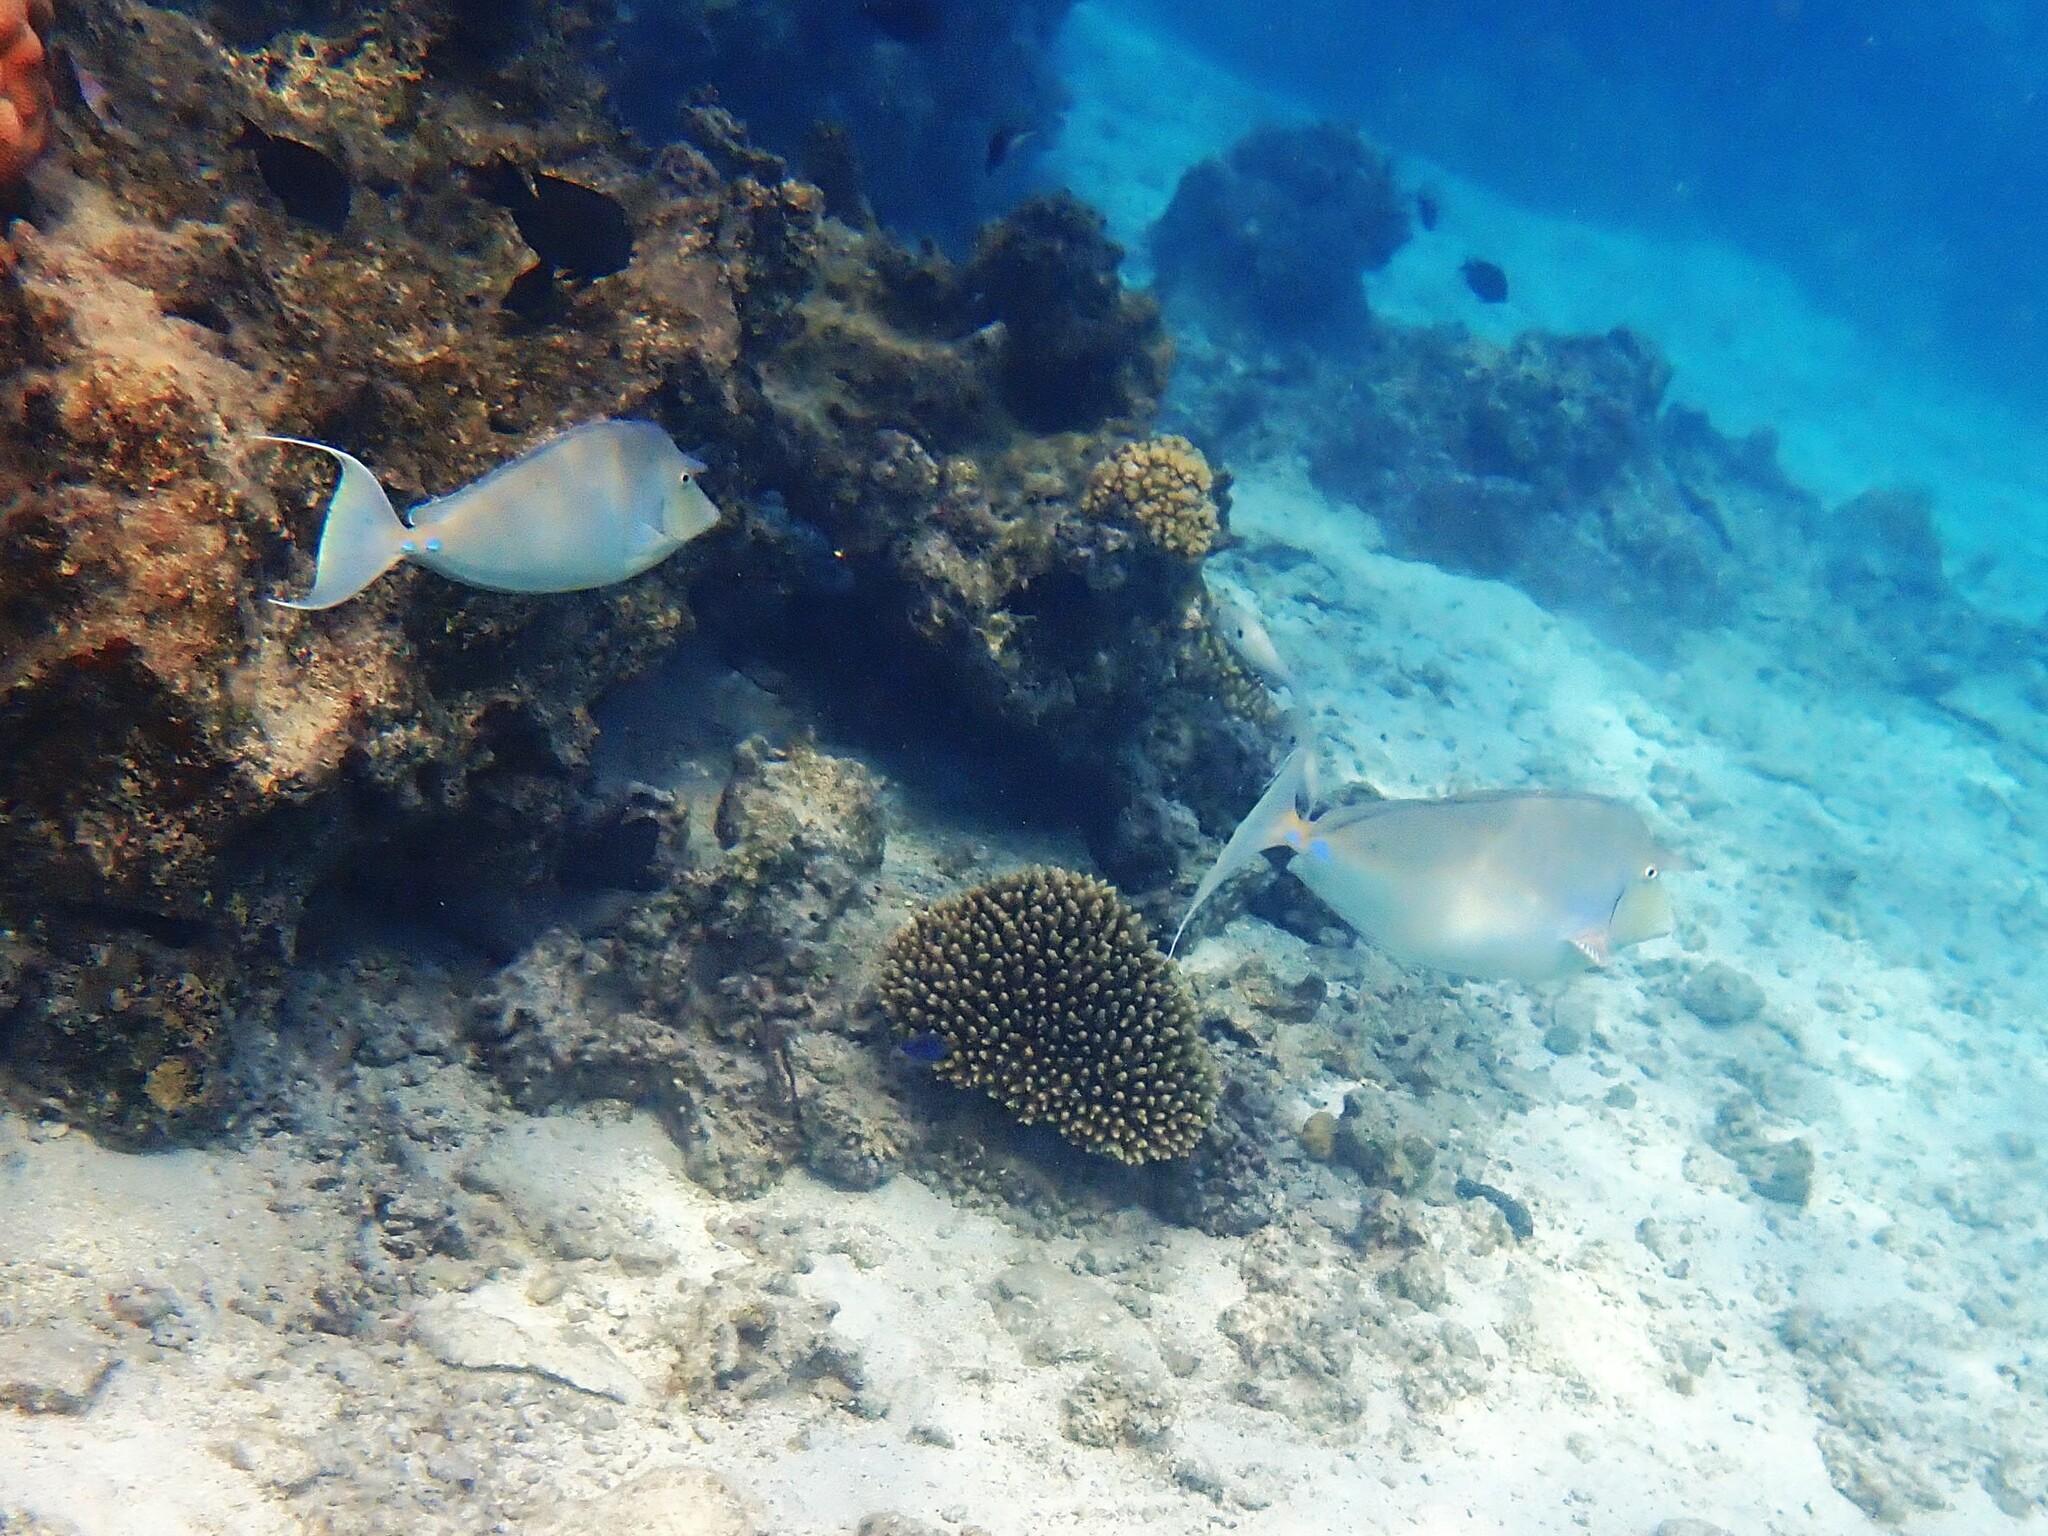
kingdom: Animalia
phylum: Chordata
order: Perciformes
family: Acanthuridae
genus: Naso
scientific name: Naso unicornis
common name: Bluespine unicornfish
